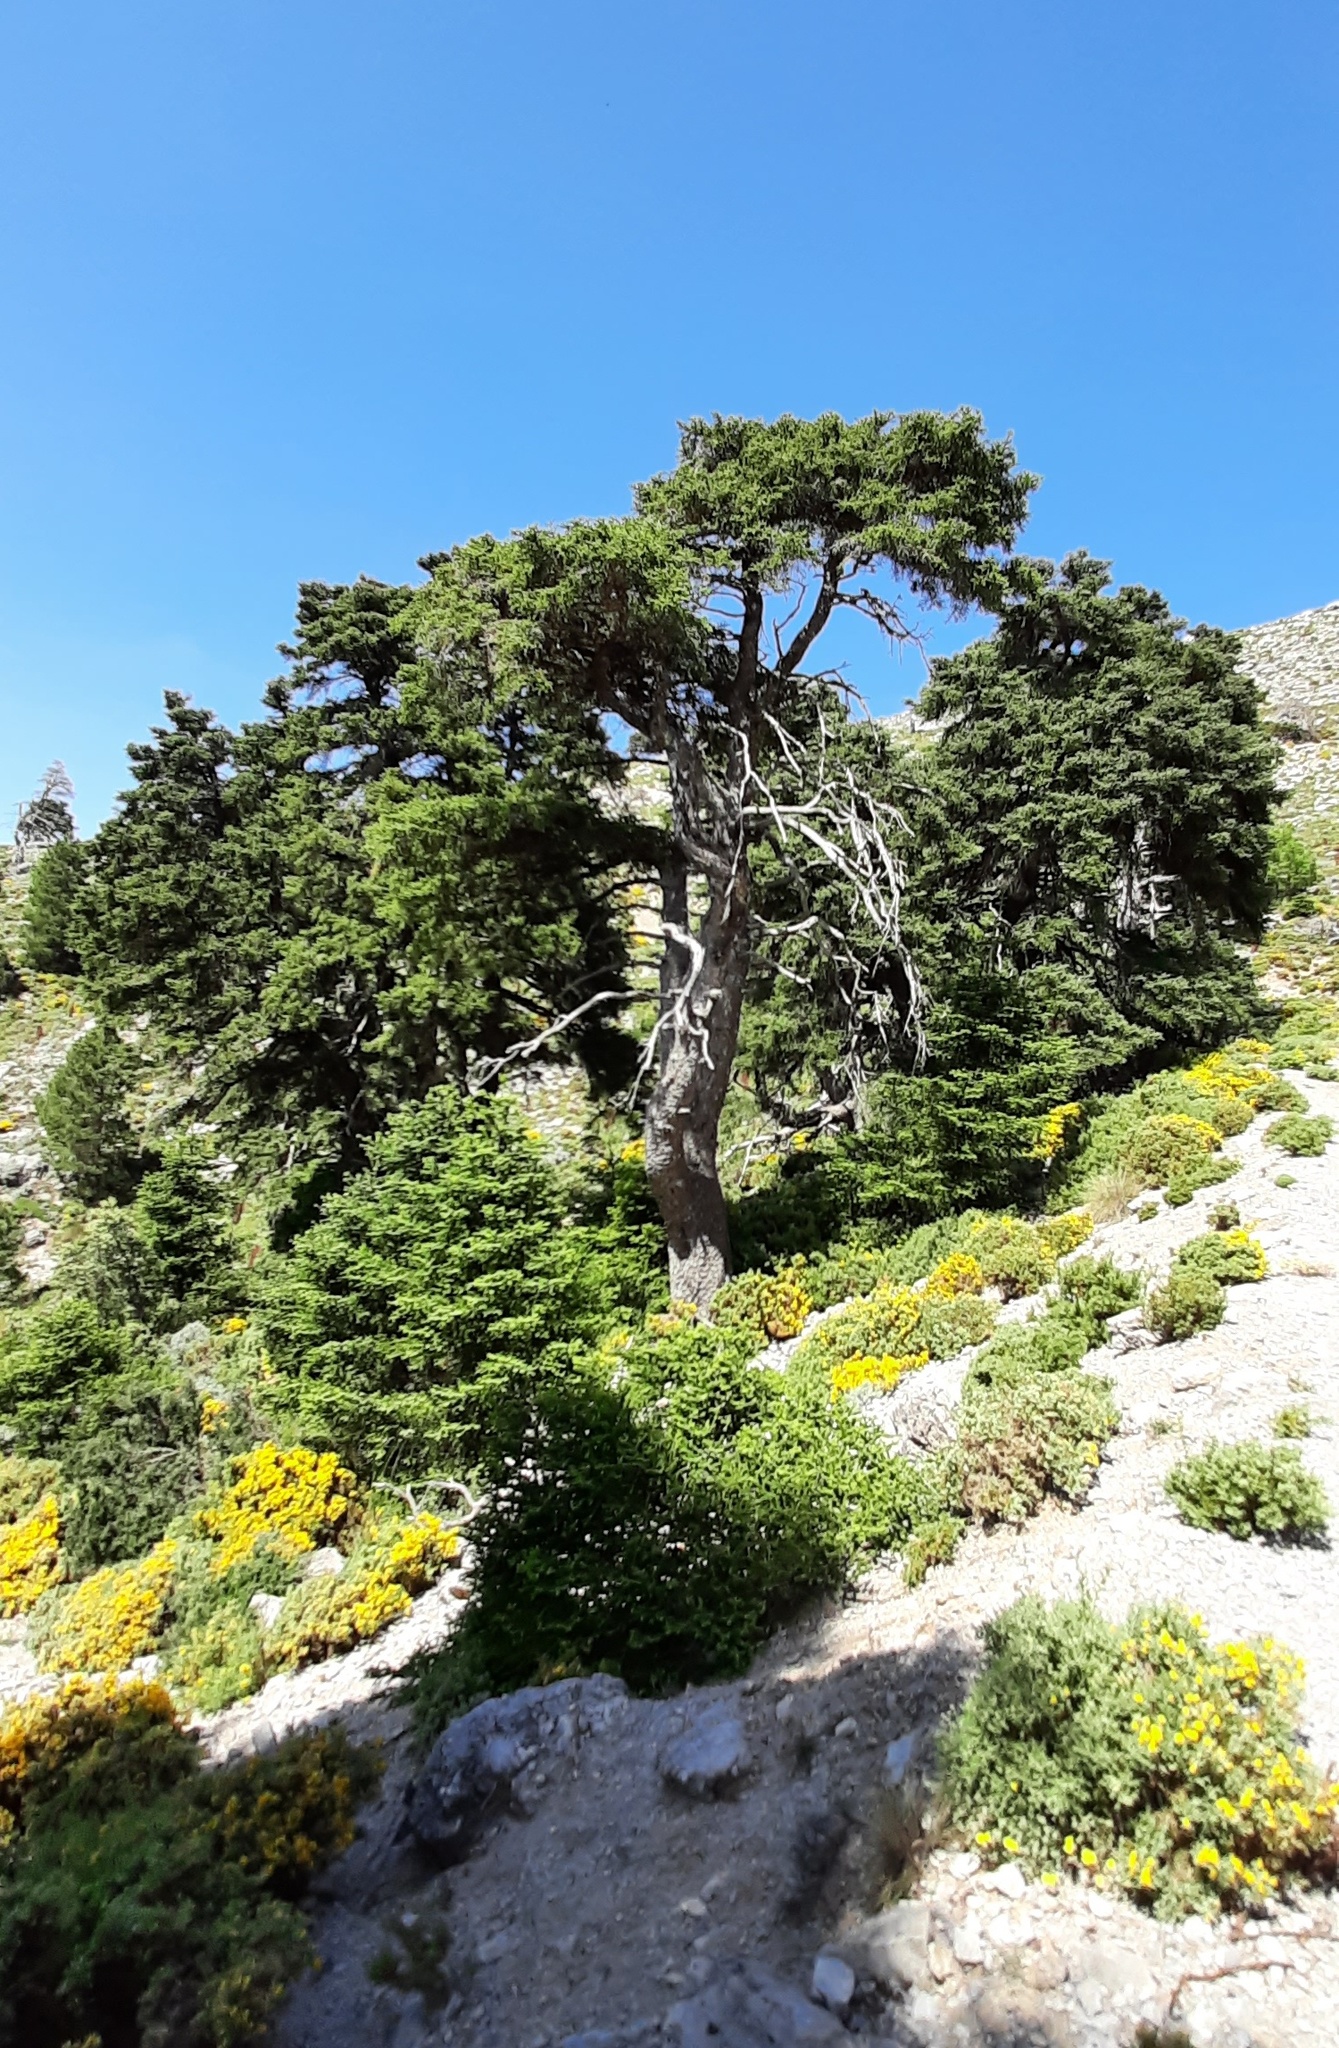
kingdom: Plantae
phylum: Tracheophyta
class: Pinopsida
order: Pinales
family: Pinaceae
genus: Abies
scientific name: Abies pinsapo
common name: Spanish fir
